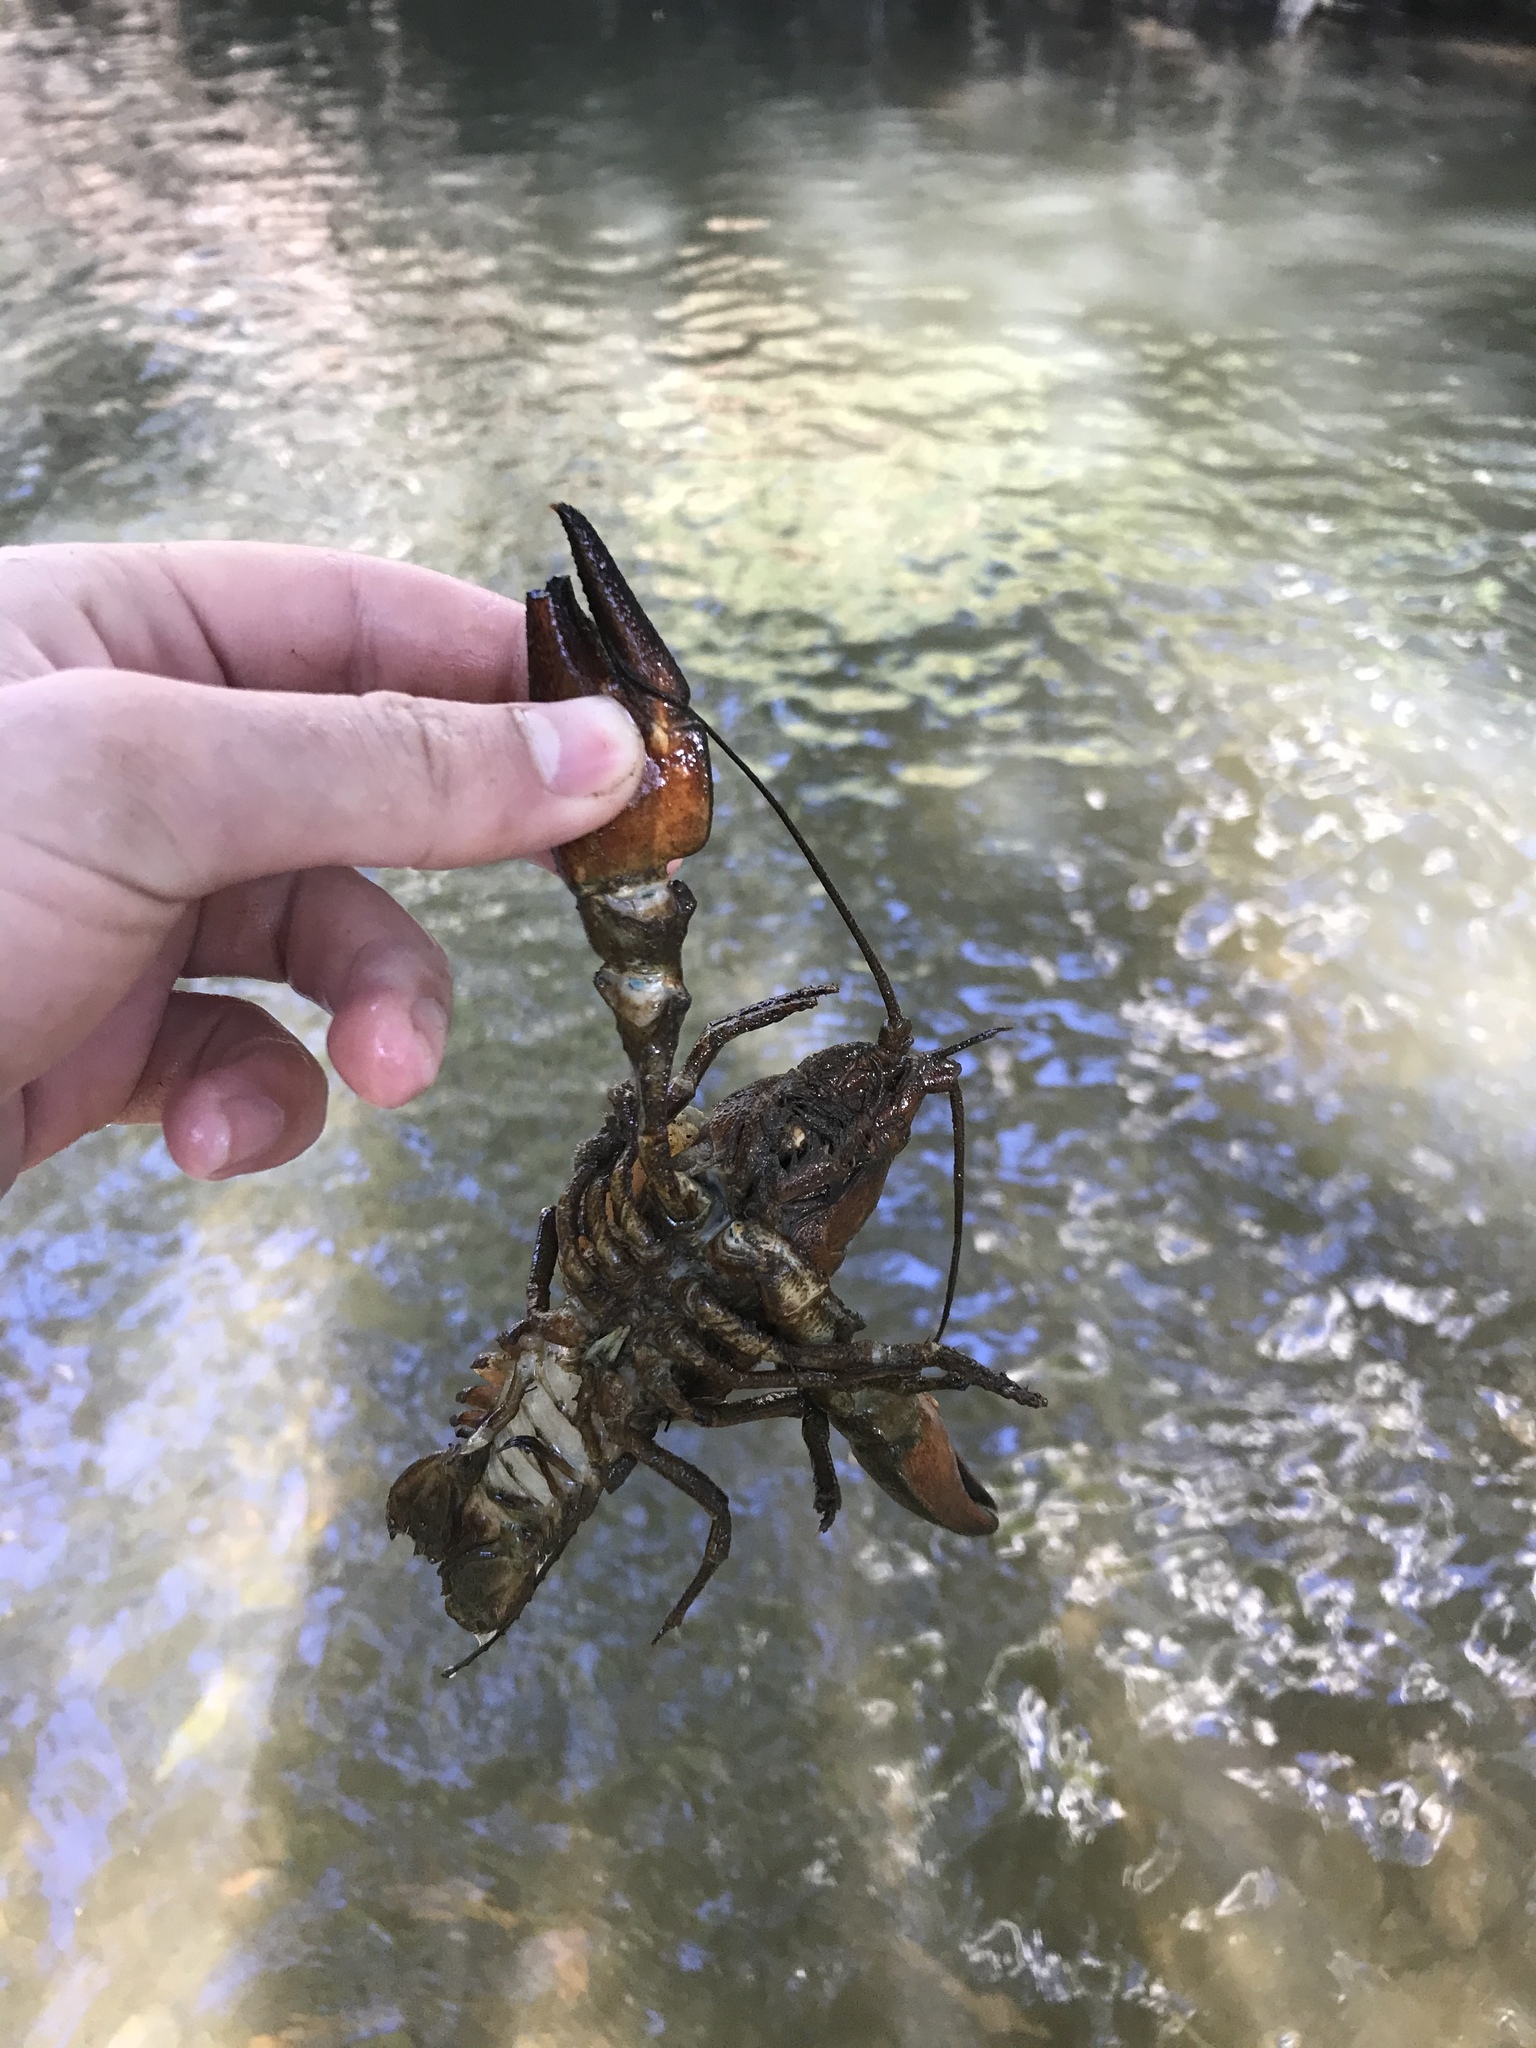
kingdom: Animalia
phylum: Arthropoda
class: Malacostraca
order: Decapoda
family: Astacidae
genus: Pacifastacus
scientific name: Pacifastacus leniusculus
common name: Signal crayfish
